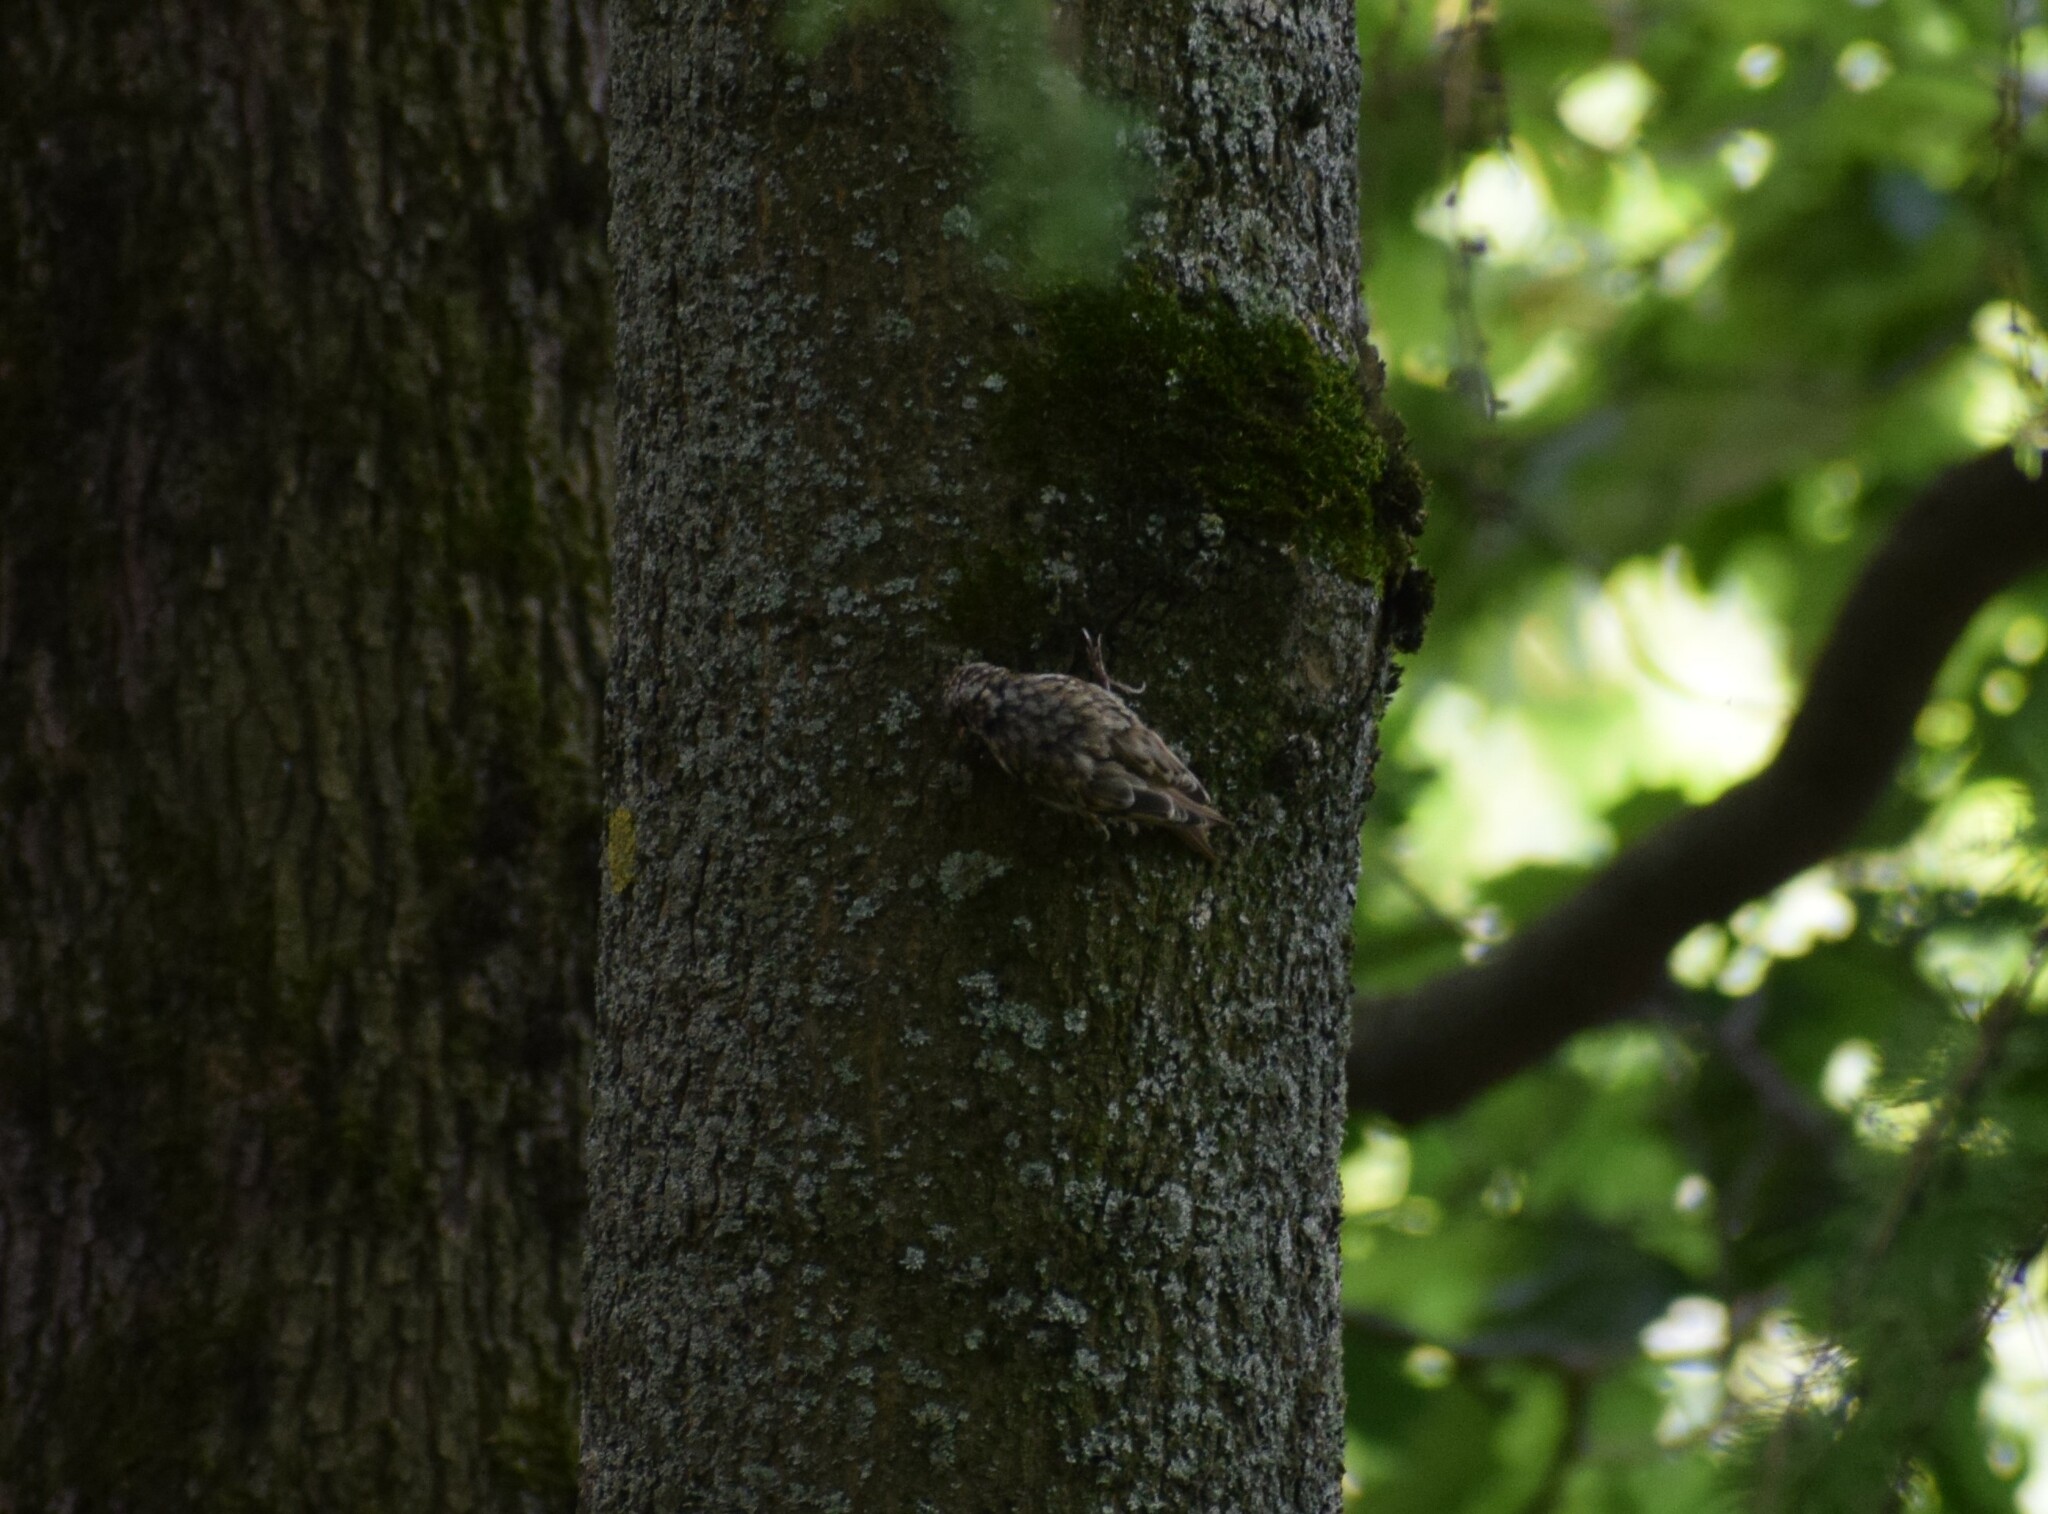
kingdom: Animalia
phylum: Chordata
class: Aves
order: Passeriformes
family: Certhiidae
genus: Certhia
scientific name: Certhia familiaris
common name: Eurasian treecreeper
